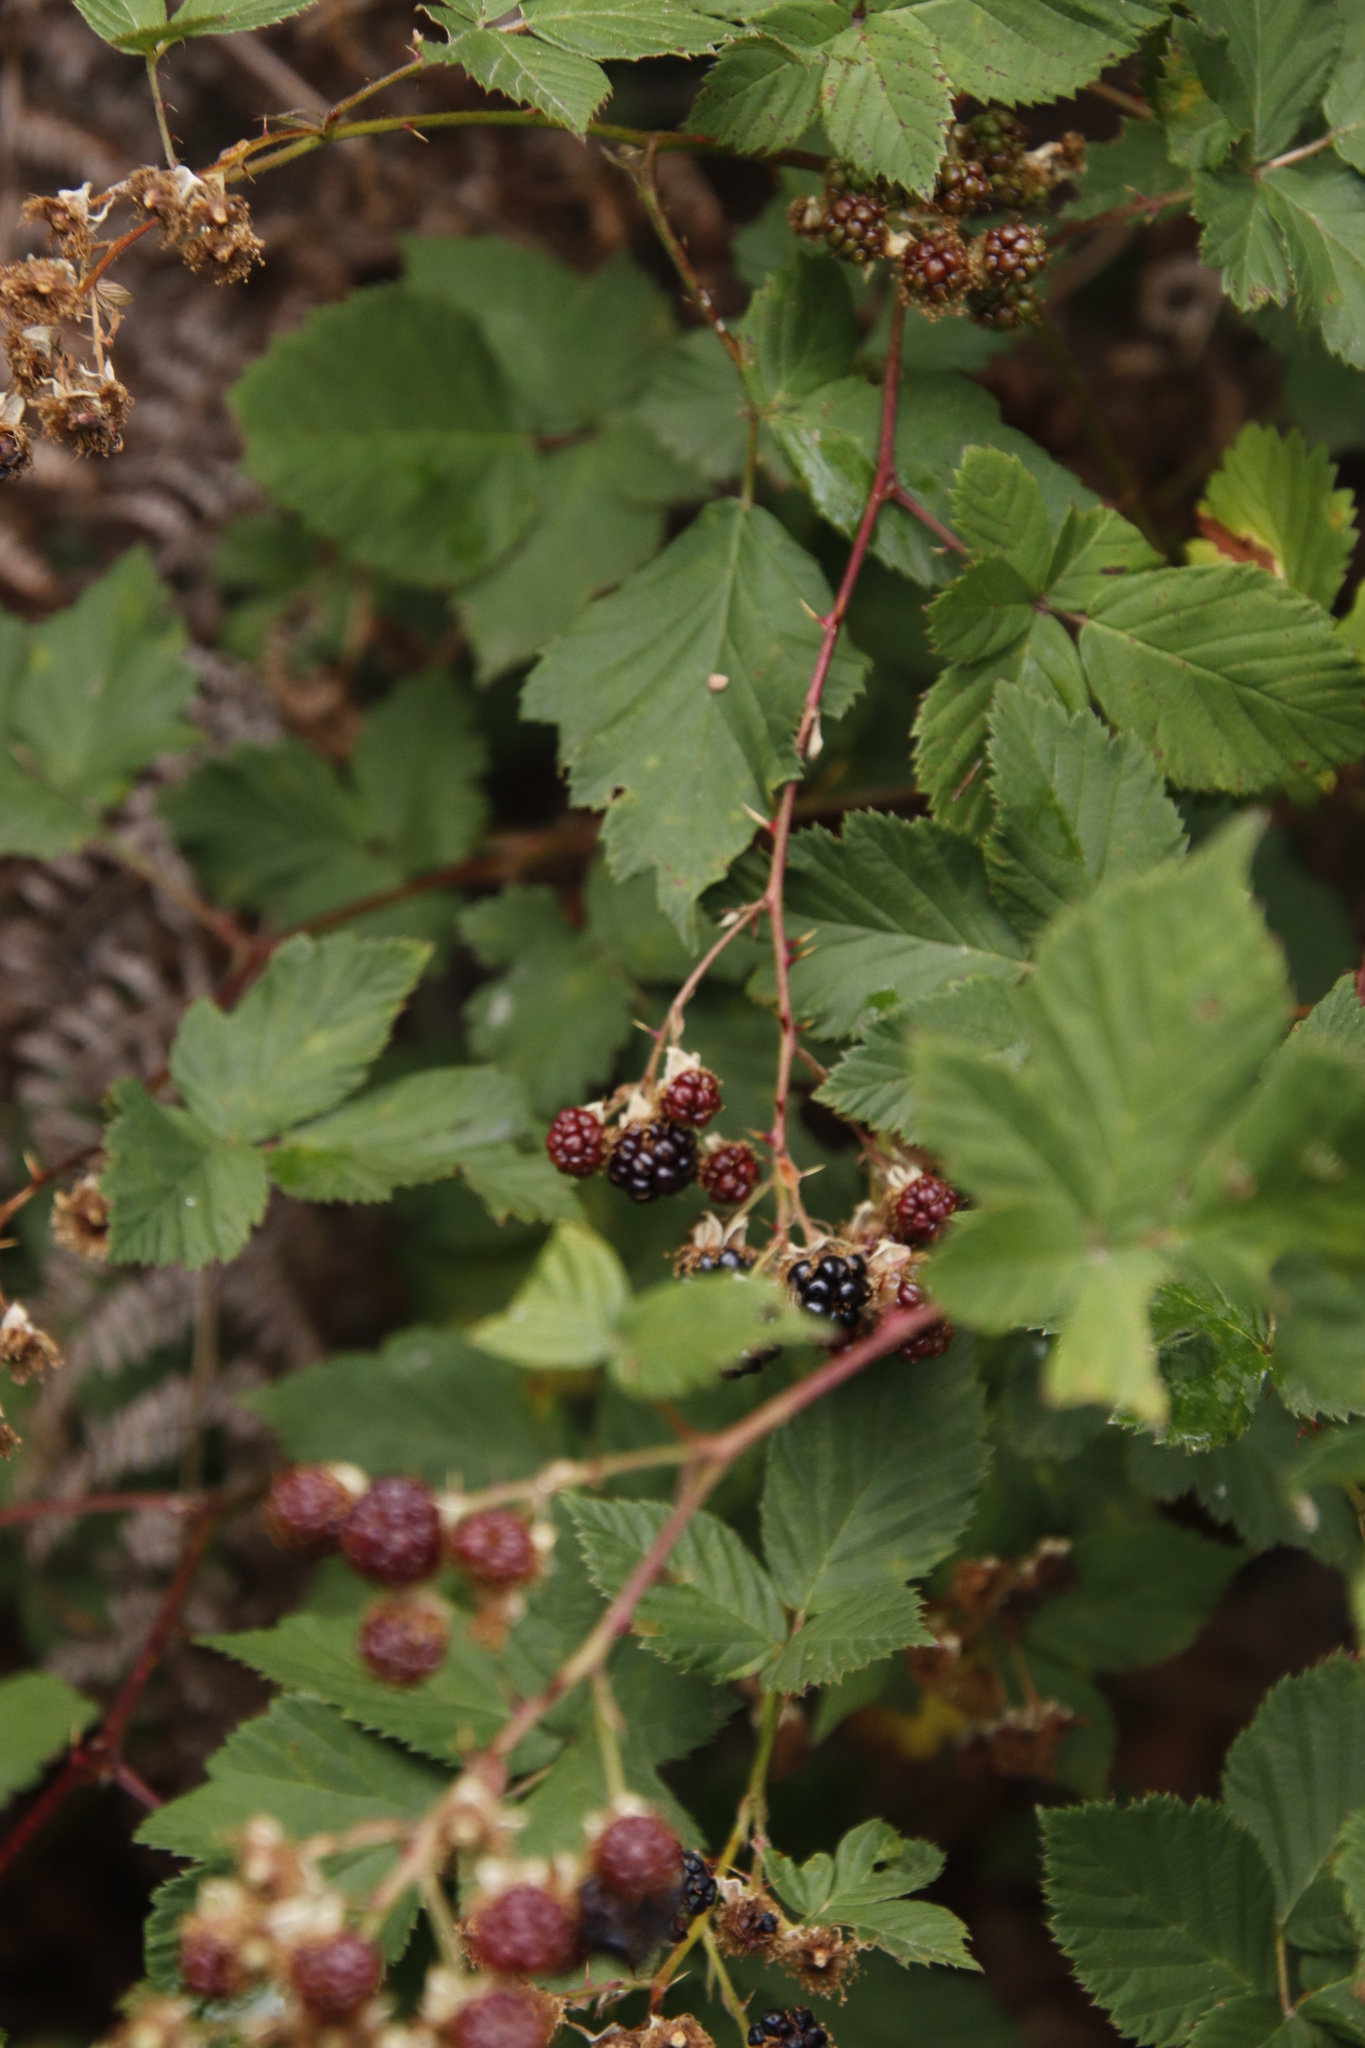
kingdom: Plantae
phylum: Tracheophyta
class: Magnoliopsida
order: Rosales
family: Rosaceae
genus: Rubus
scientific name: Rubus affinis
